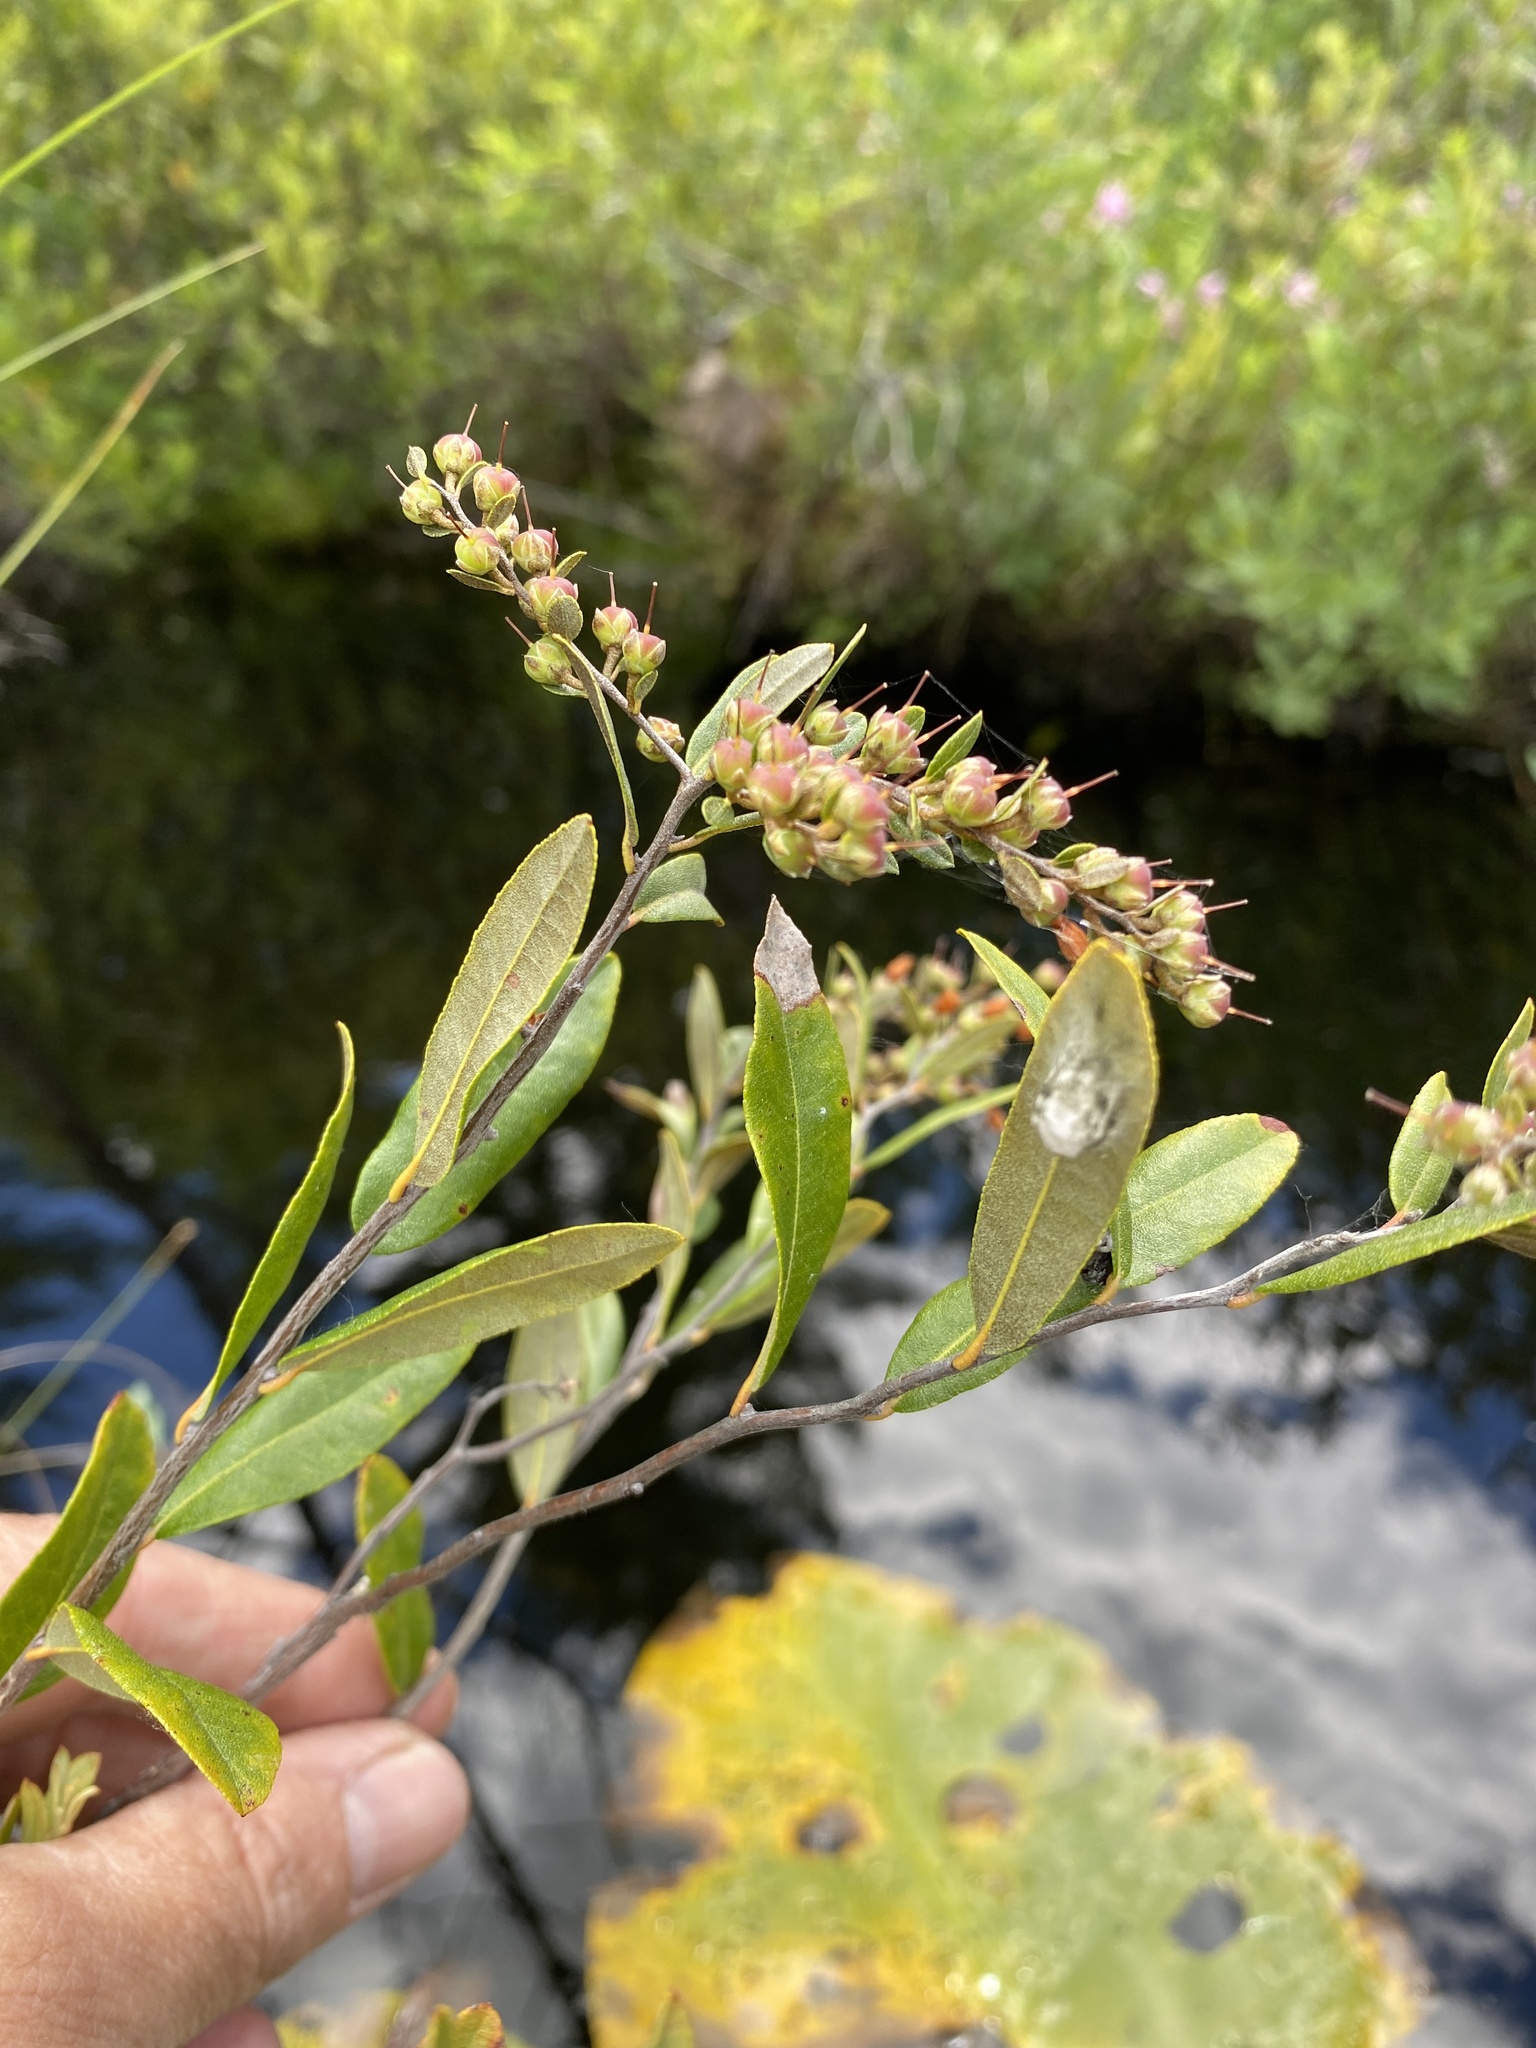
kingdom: Plantae
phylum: Tracheophyta
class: Magnoliopsida
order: Ericales
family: Ericaceae
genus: Chamaedaphne
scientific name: Chamaedaphne calyculata
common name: Leatherleaf
